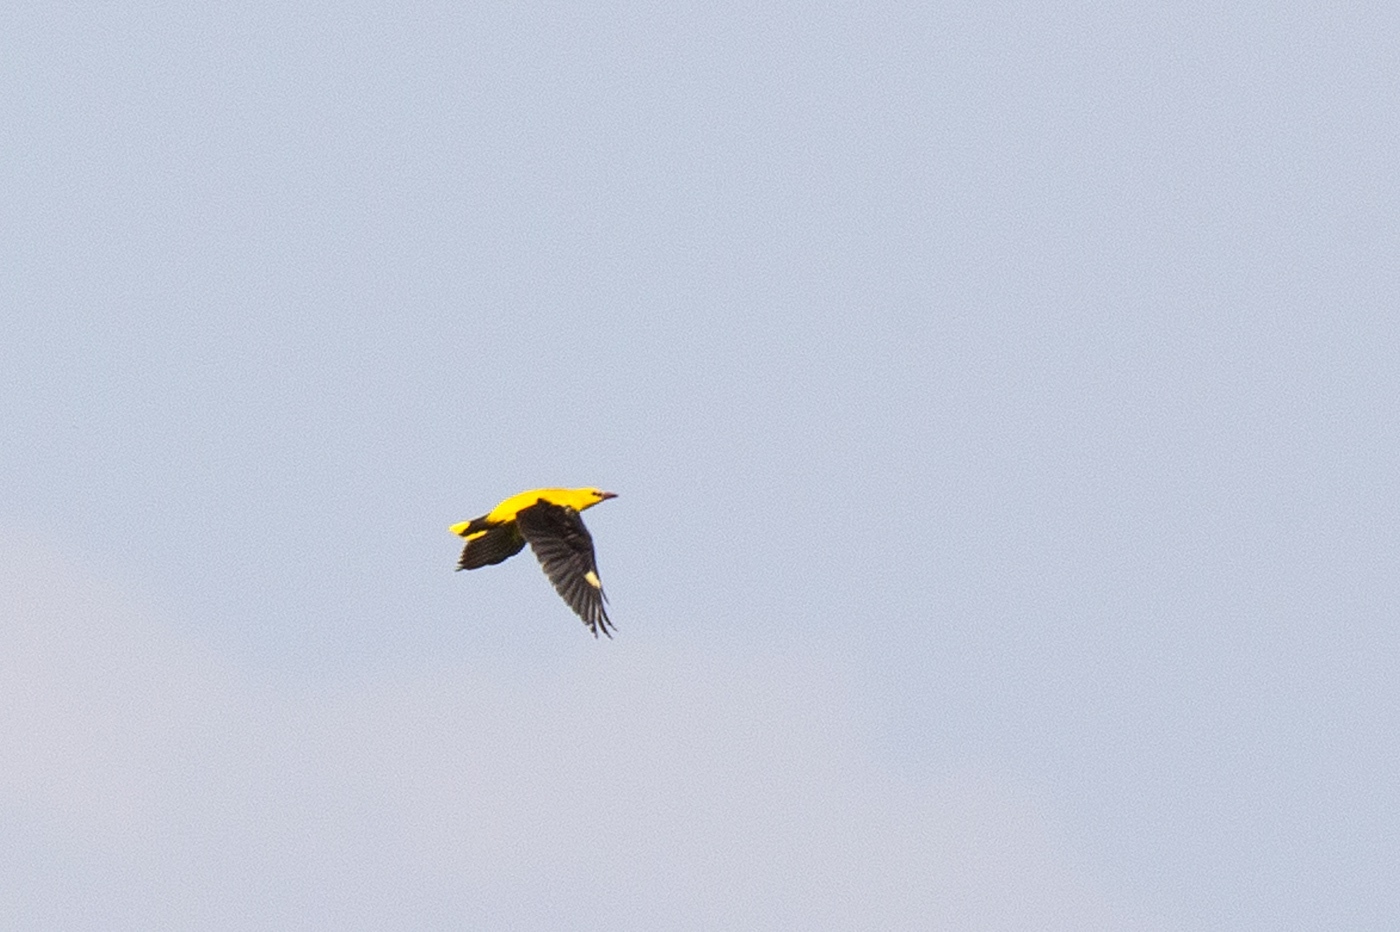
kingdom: Animalia
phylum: Chordata
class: Aves
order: Passeriformes
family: Oriolidae
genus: Oriolus
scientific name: Oriolus oriolus
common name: Eurasian golden oriole
